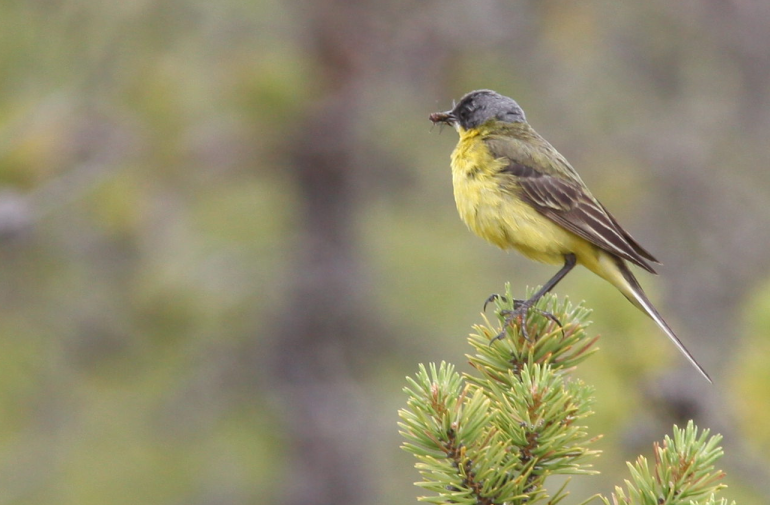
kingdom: Animalia
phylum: Chordata
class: Aves
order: Passeriformes
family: Motacillidae
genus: Motacilla
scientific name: Motacilla flava
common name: Western yellow wagtail
